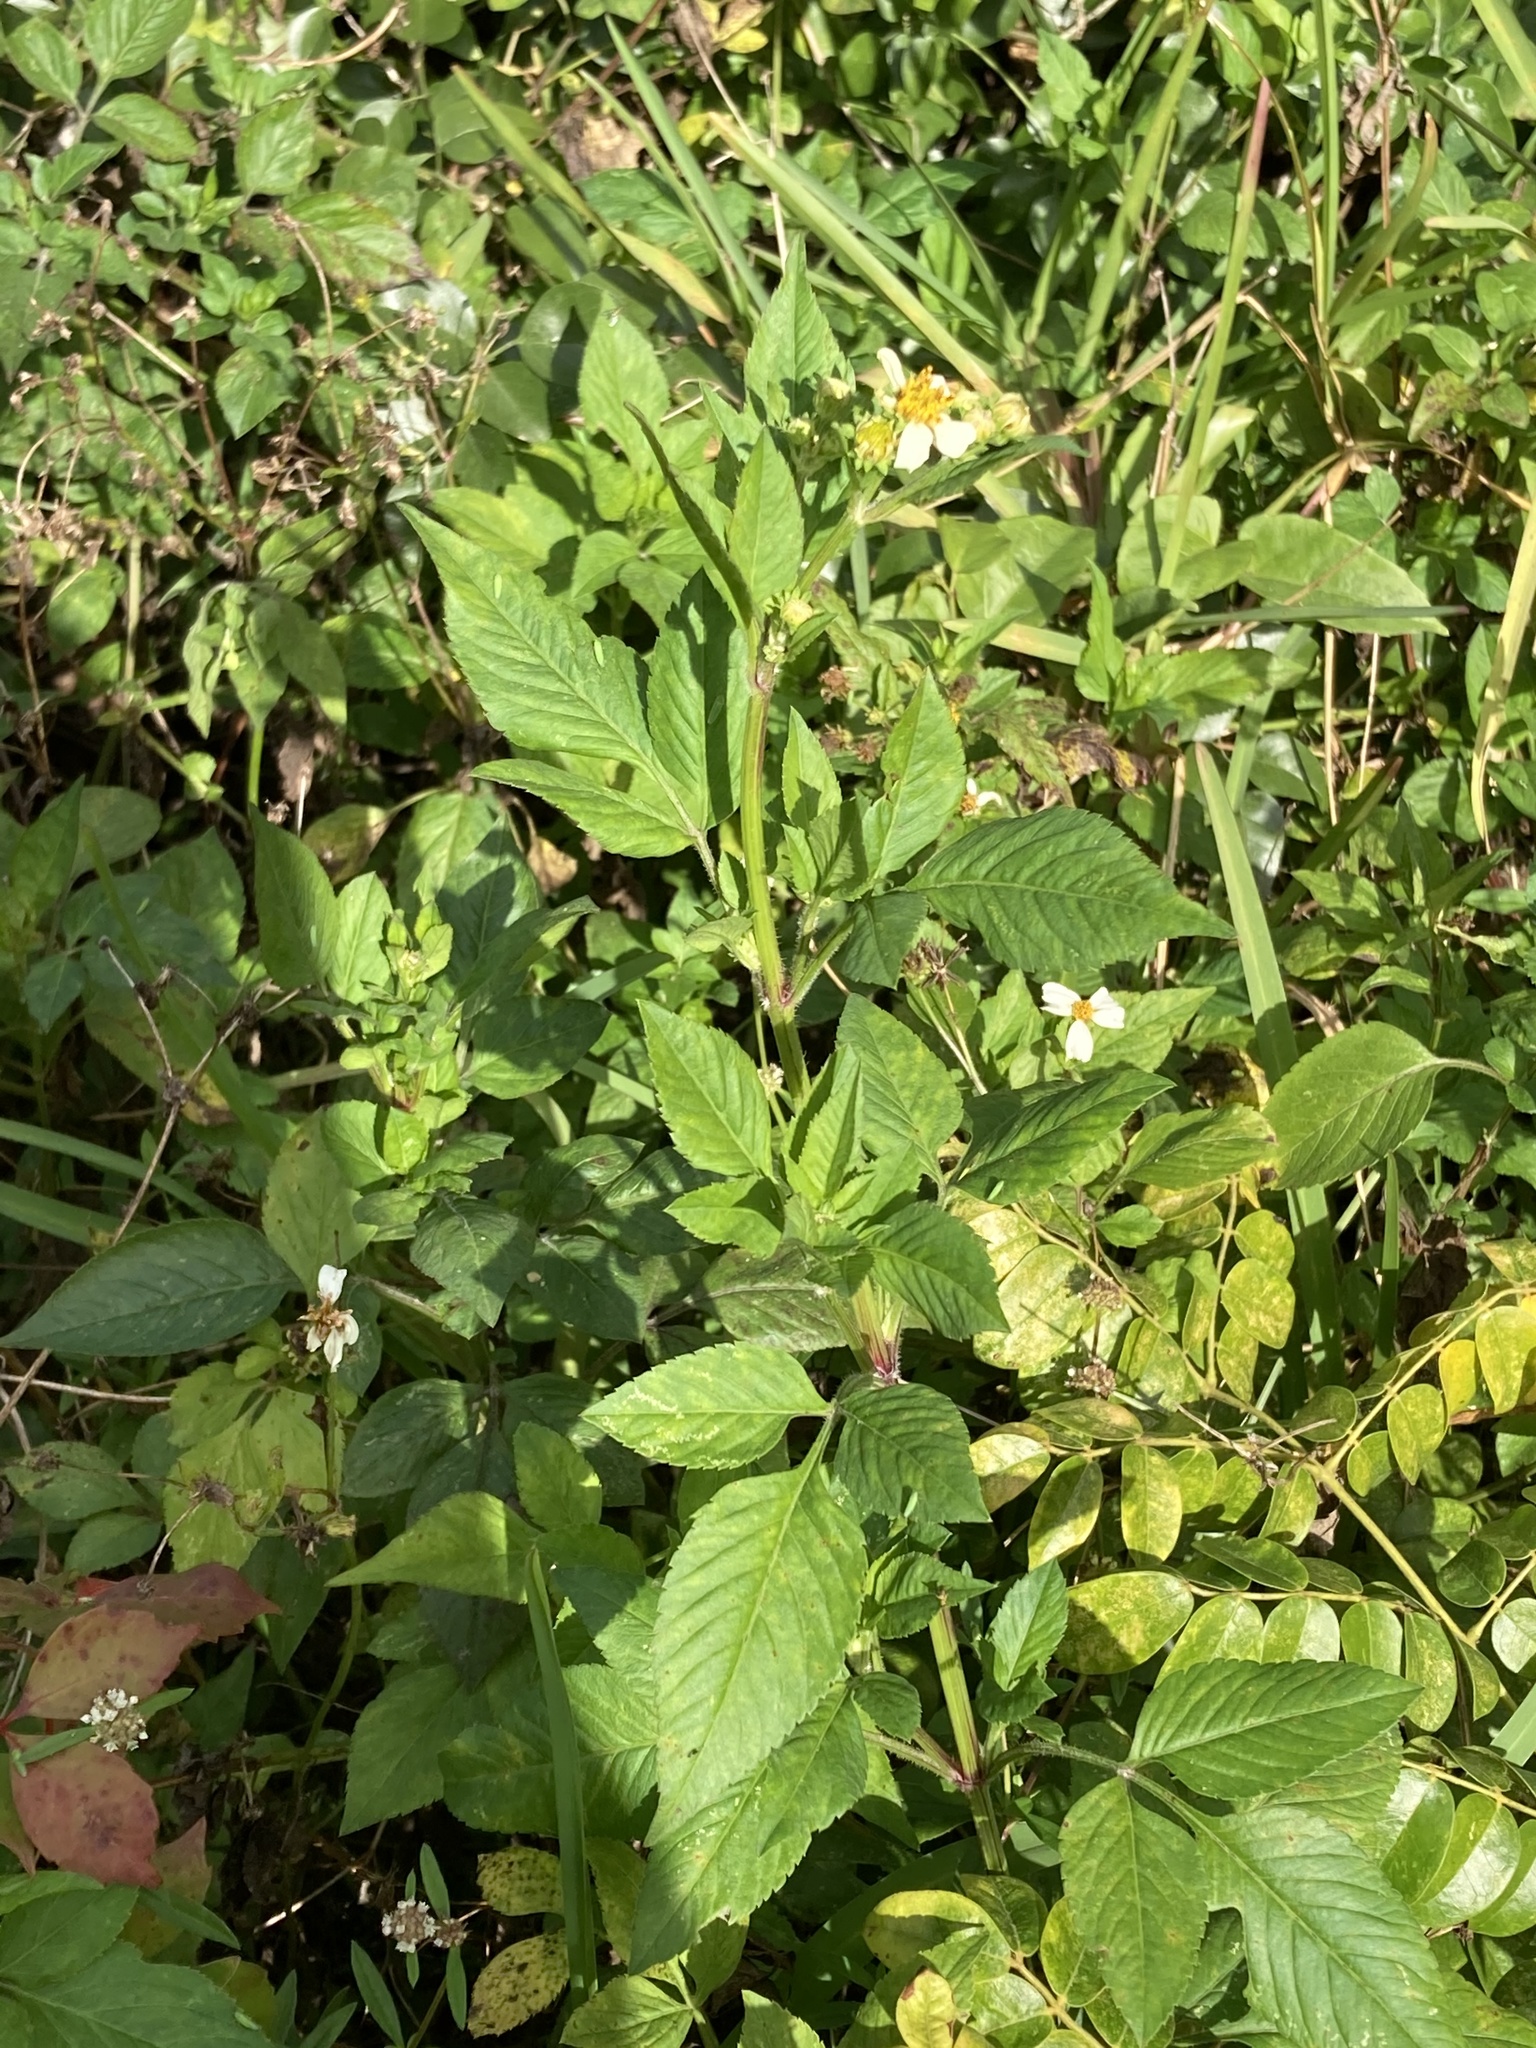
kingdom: Plantae
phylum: Tracheophyta
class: Magnoliopsida
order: Asterales
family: Asteraceae
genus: Bidens
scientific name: Bidens alba
